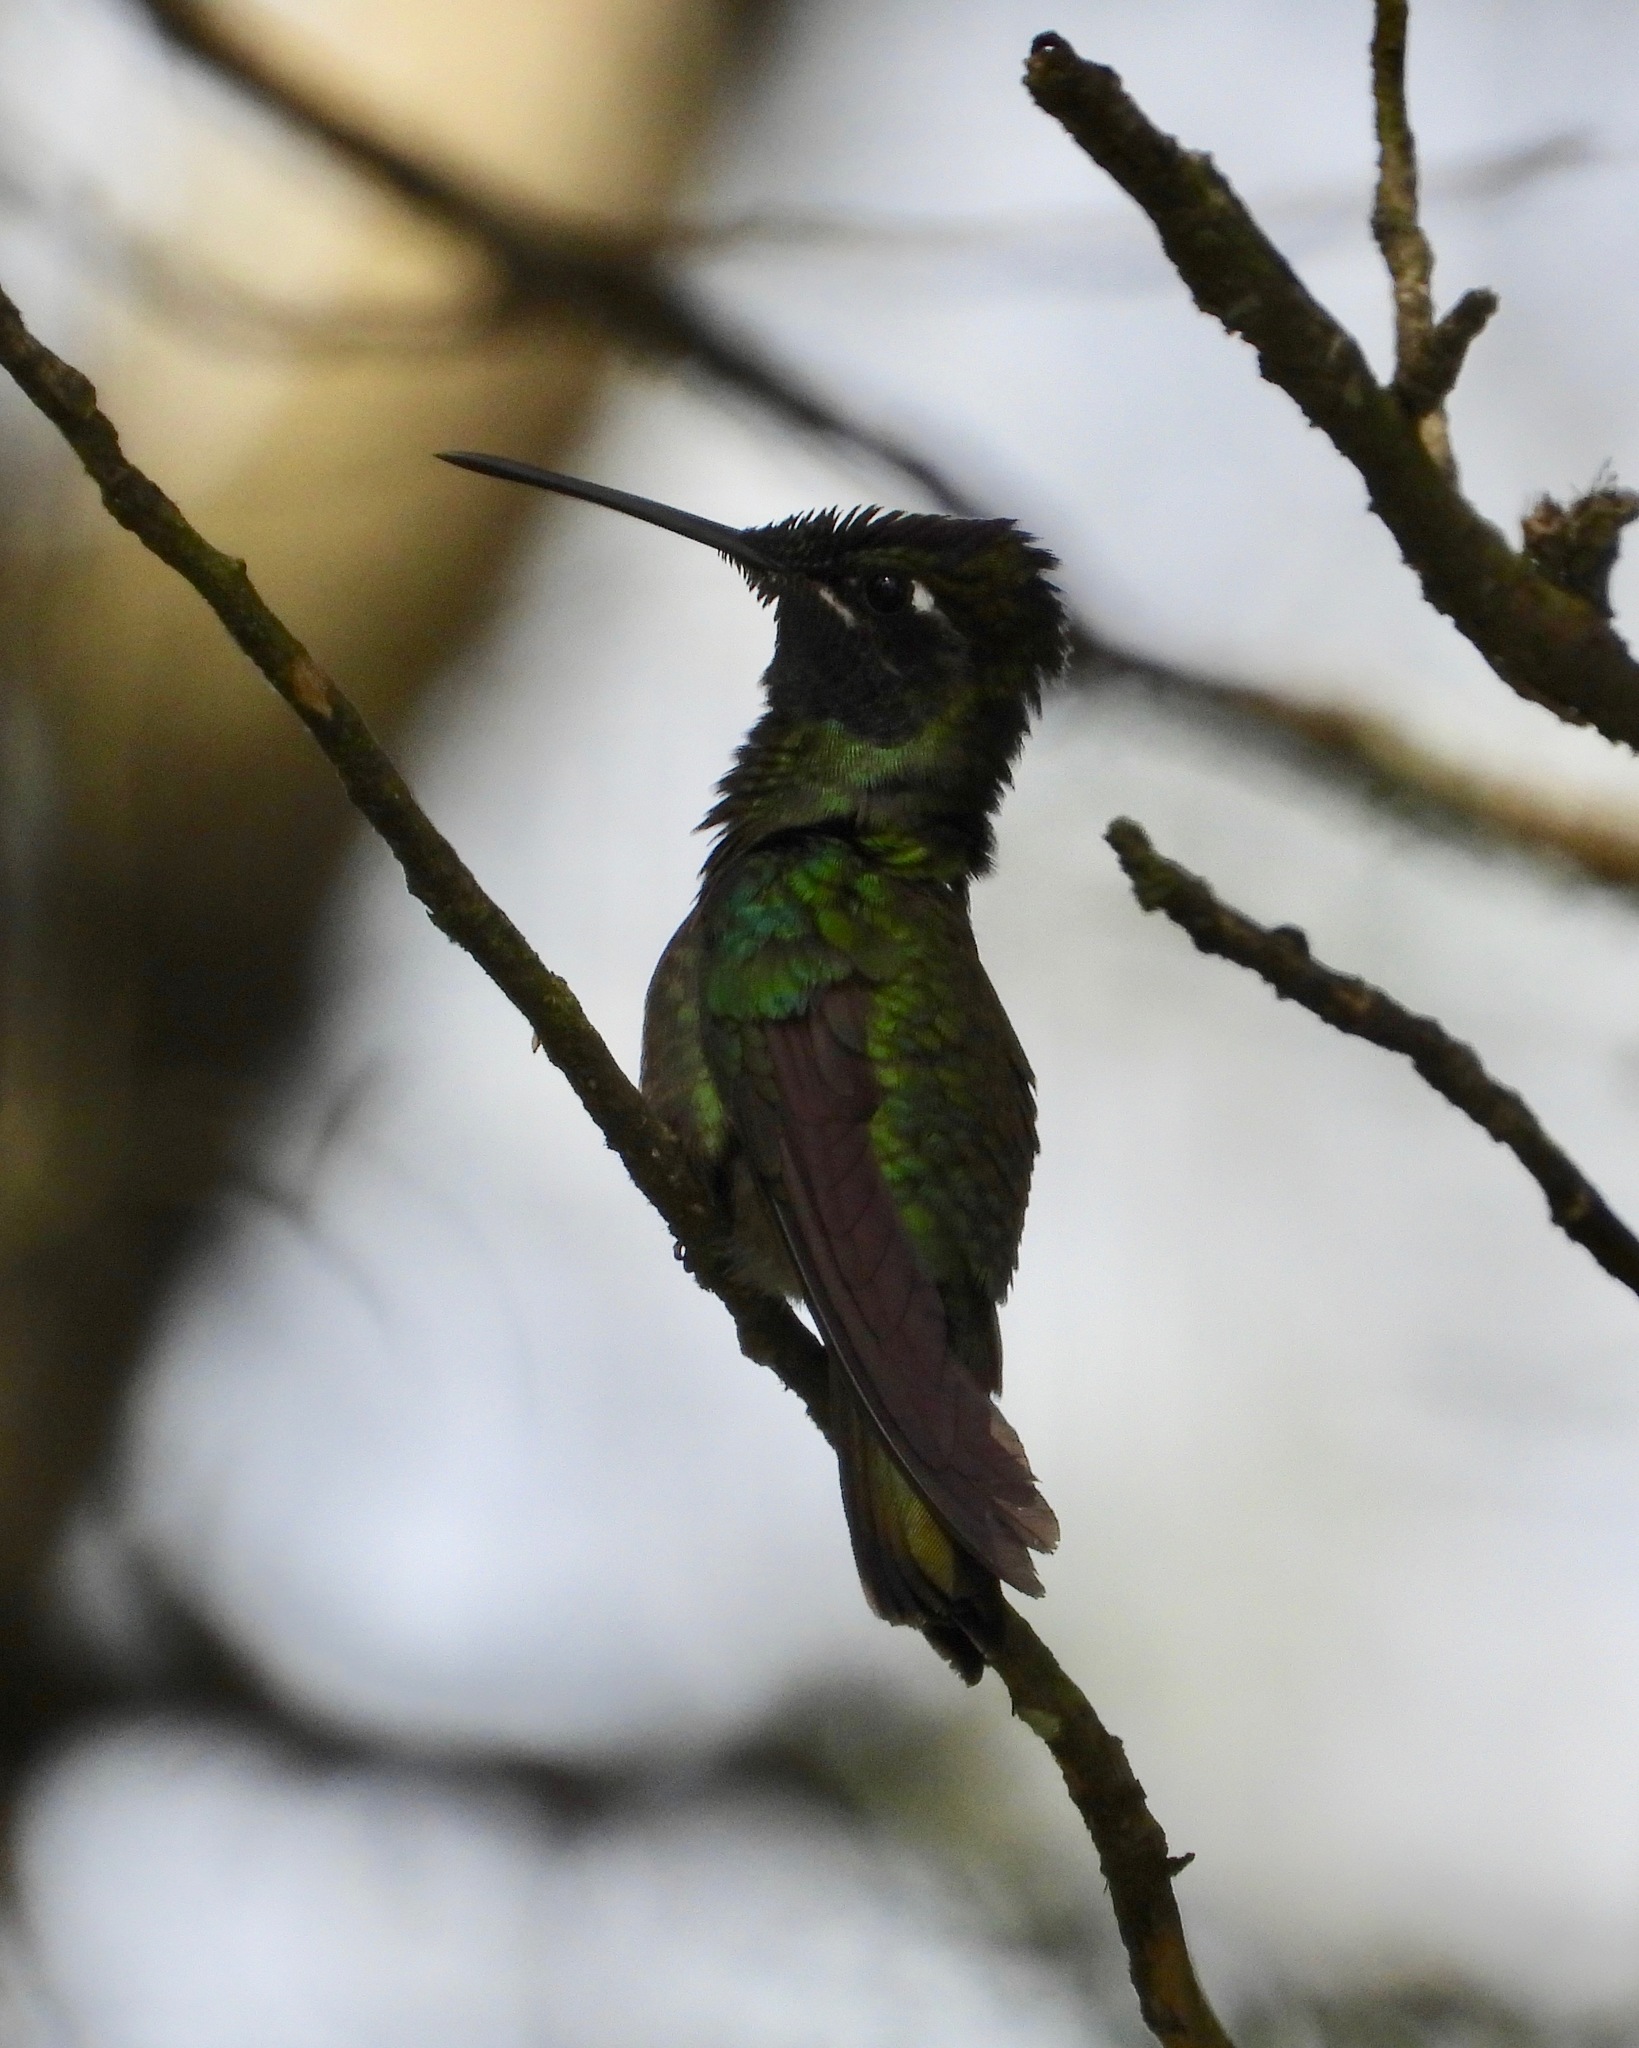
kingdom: Animalia
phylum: Chordata
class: Aves
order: Apodiformes
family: Trochilidae
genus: Eugenes
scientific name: Eugenes fulgens
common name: Magnificent hummingbird
